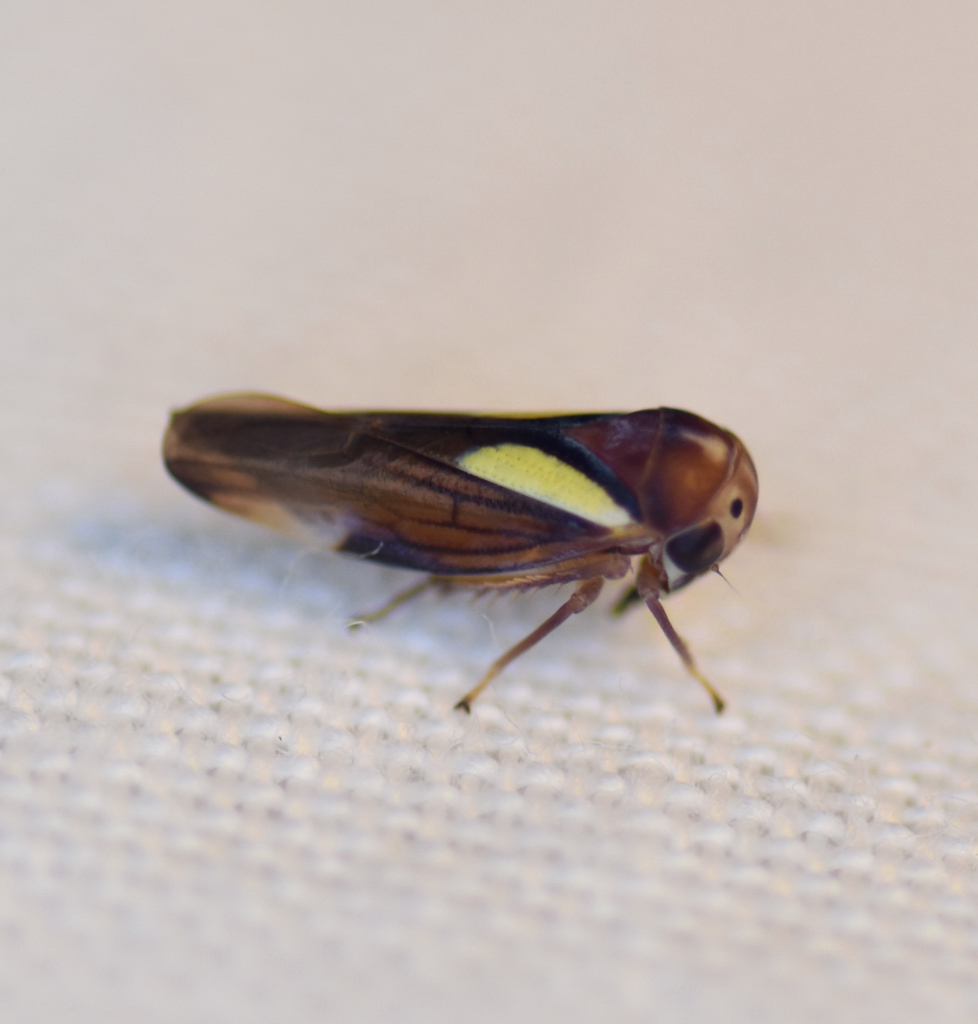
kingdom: Animalia
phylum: Arthropoda
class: Insecta
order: Hemiptera
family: Cicadellidae
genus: Balcanocerus
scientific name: Balcanocerus provancheri
